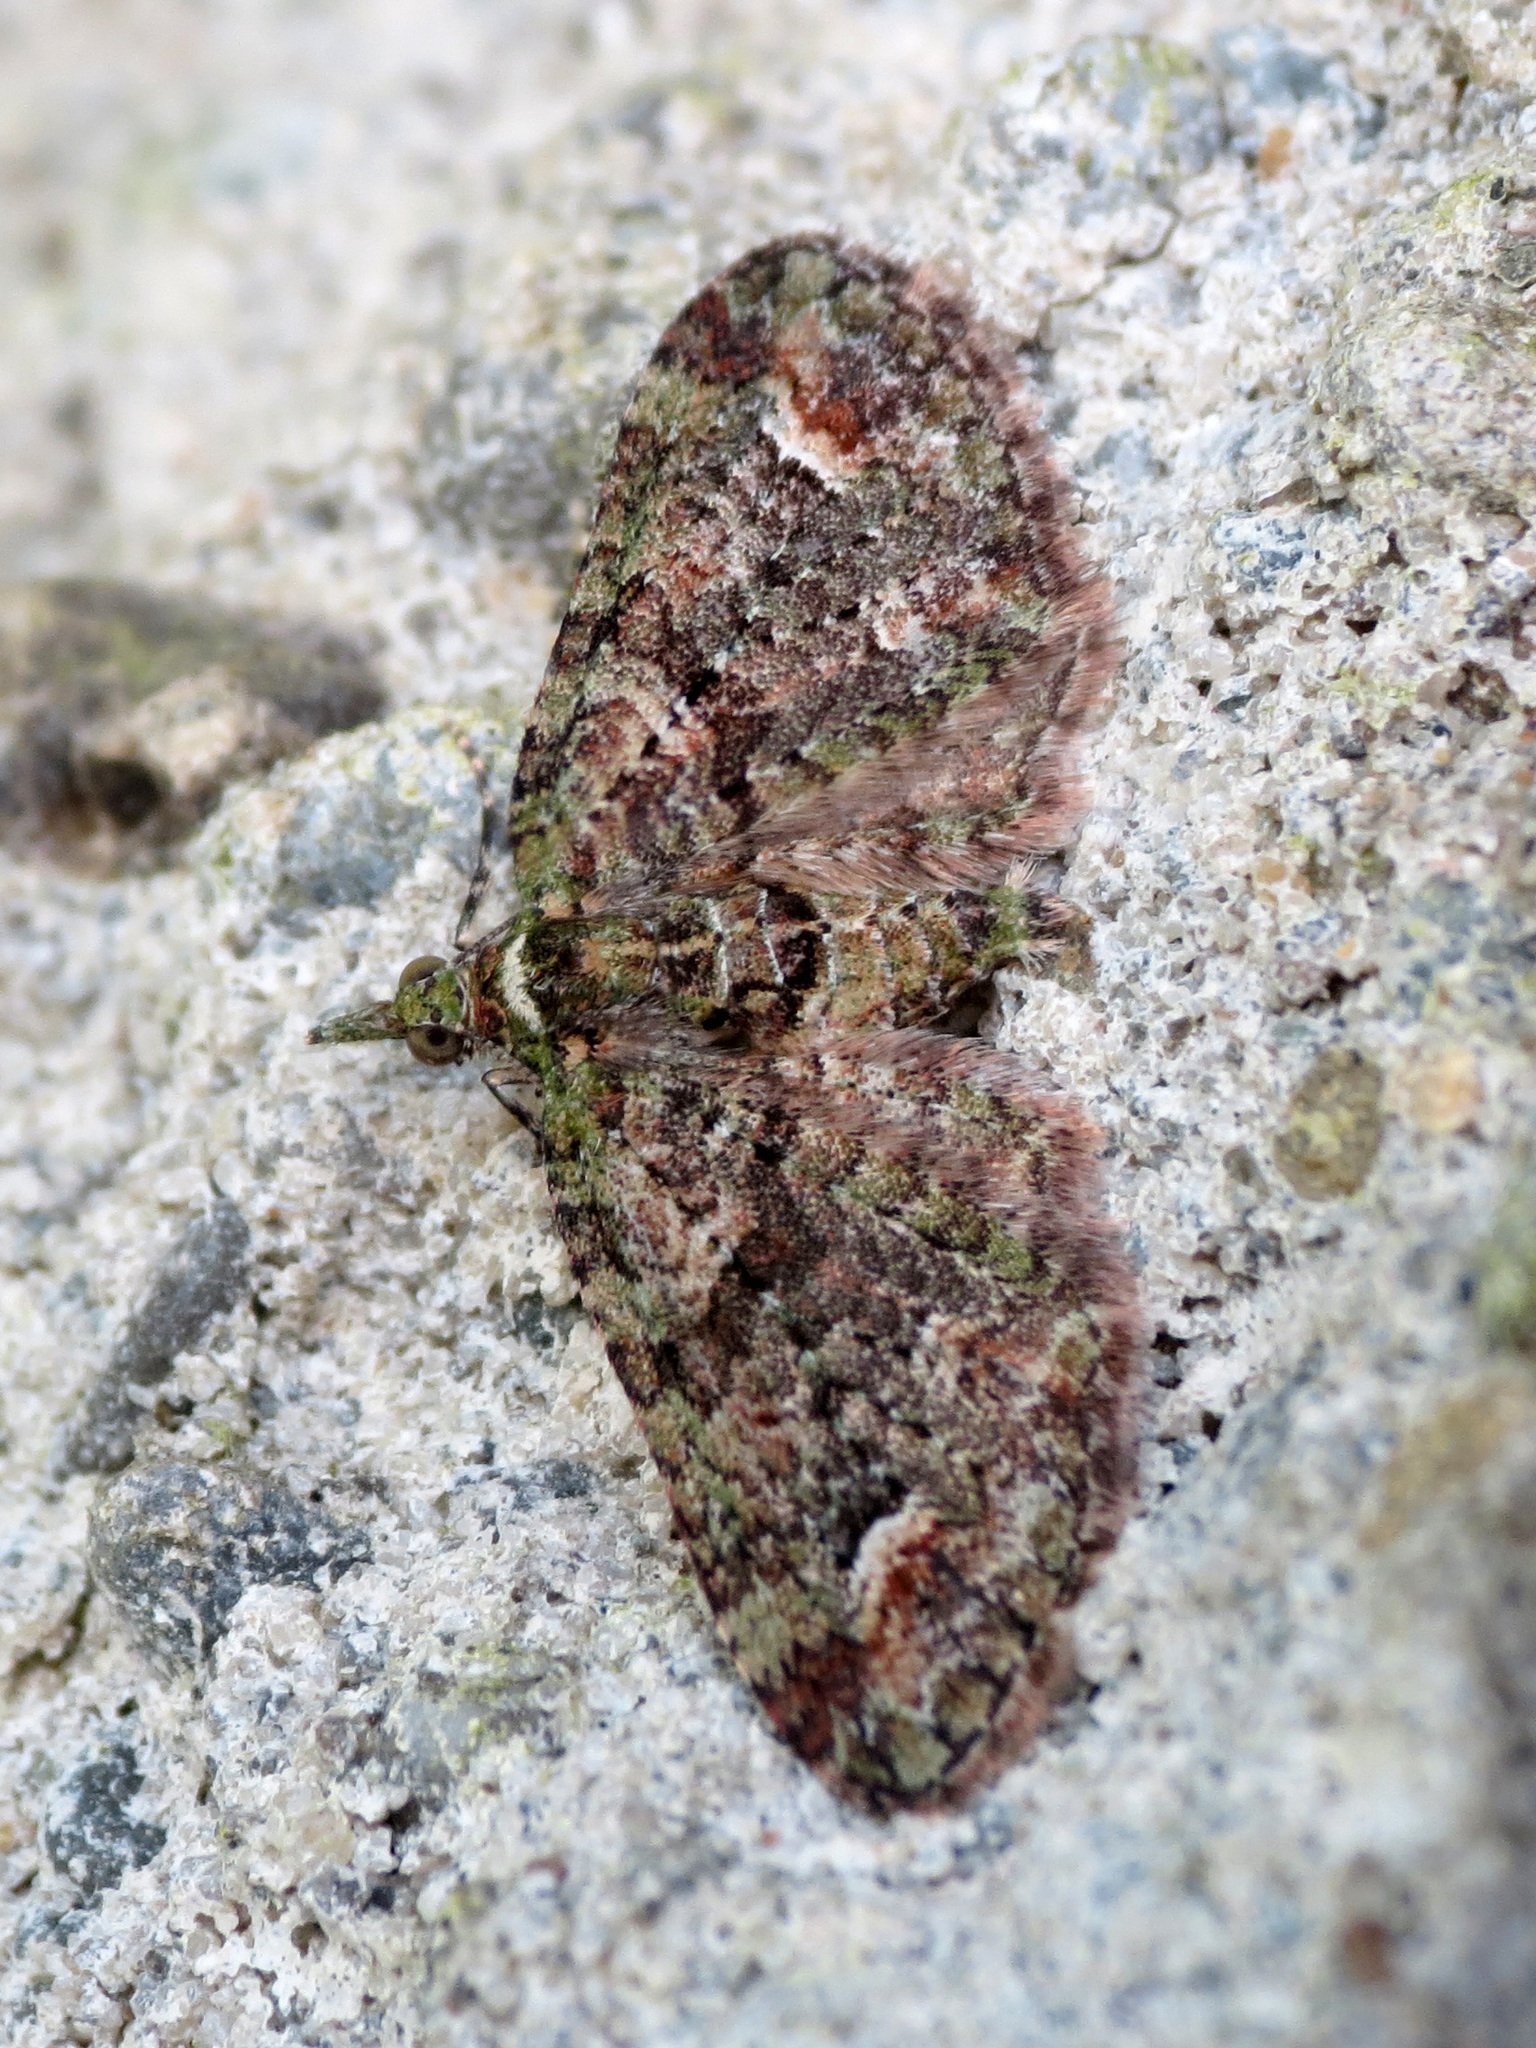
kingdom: Animalia
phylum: Arthropoda
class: Insecta
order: Lepidoptera
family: Geometridae
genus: Idaea
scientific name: Idaea mutanda
